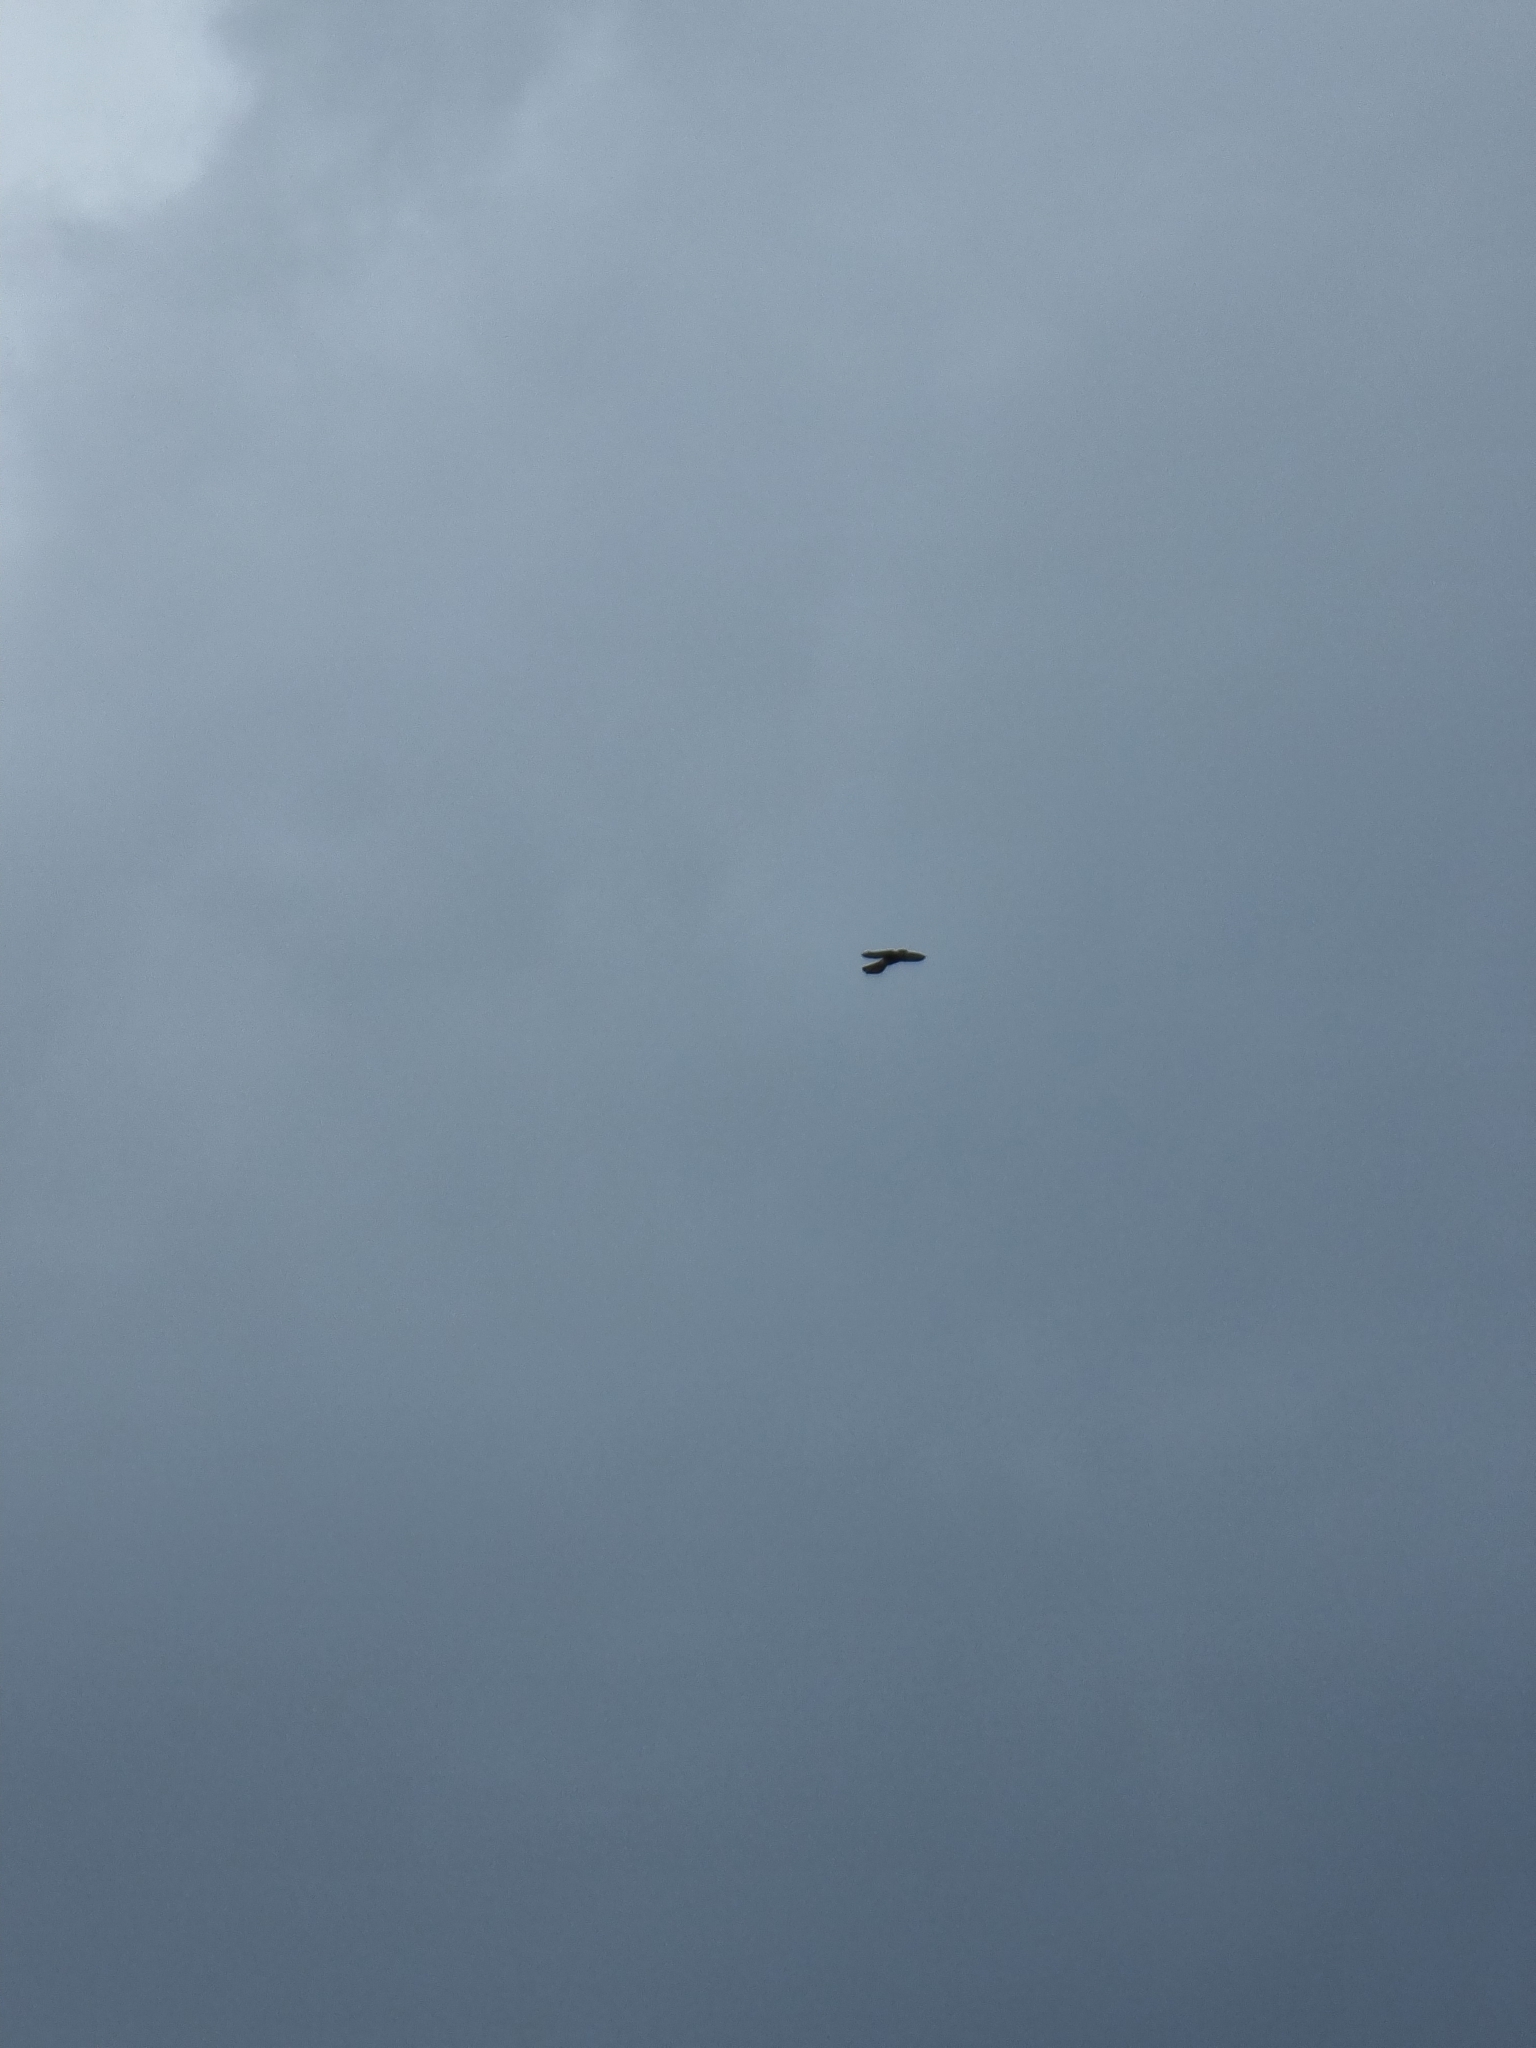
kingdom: Animalia
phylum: Chordata
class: Aves
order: Falconiformes
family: Falconidae
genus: Falco
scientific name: Falco tinnunculus
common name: Common kestrel
